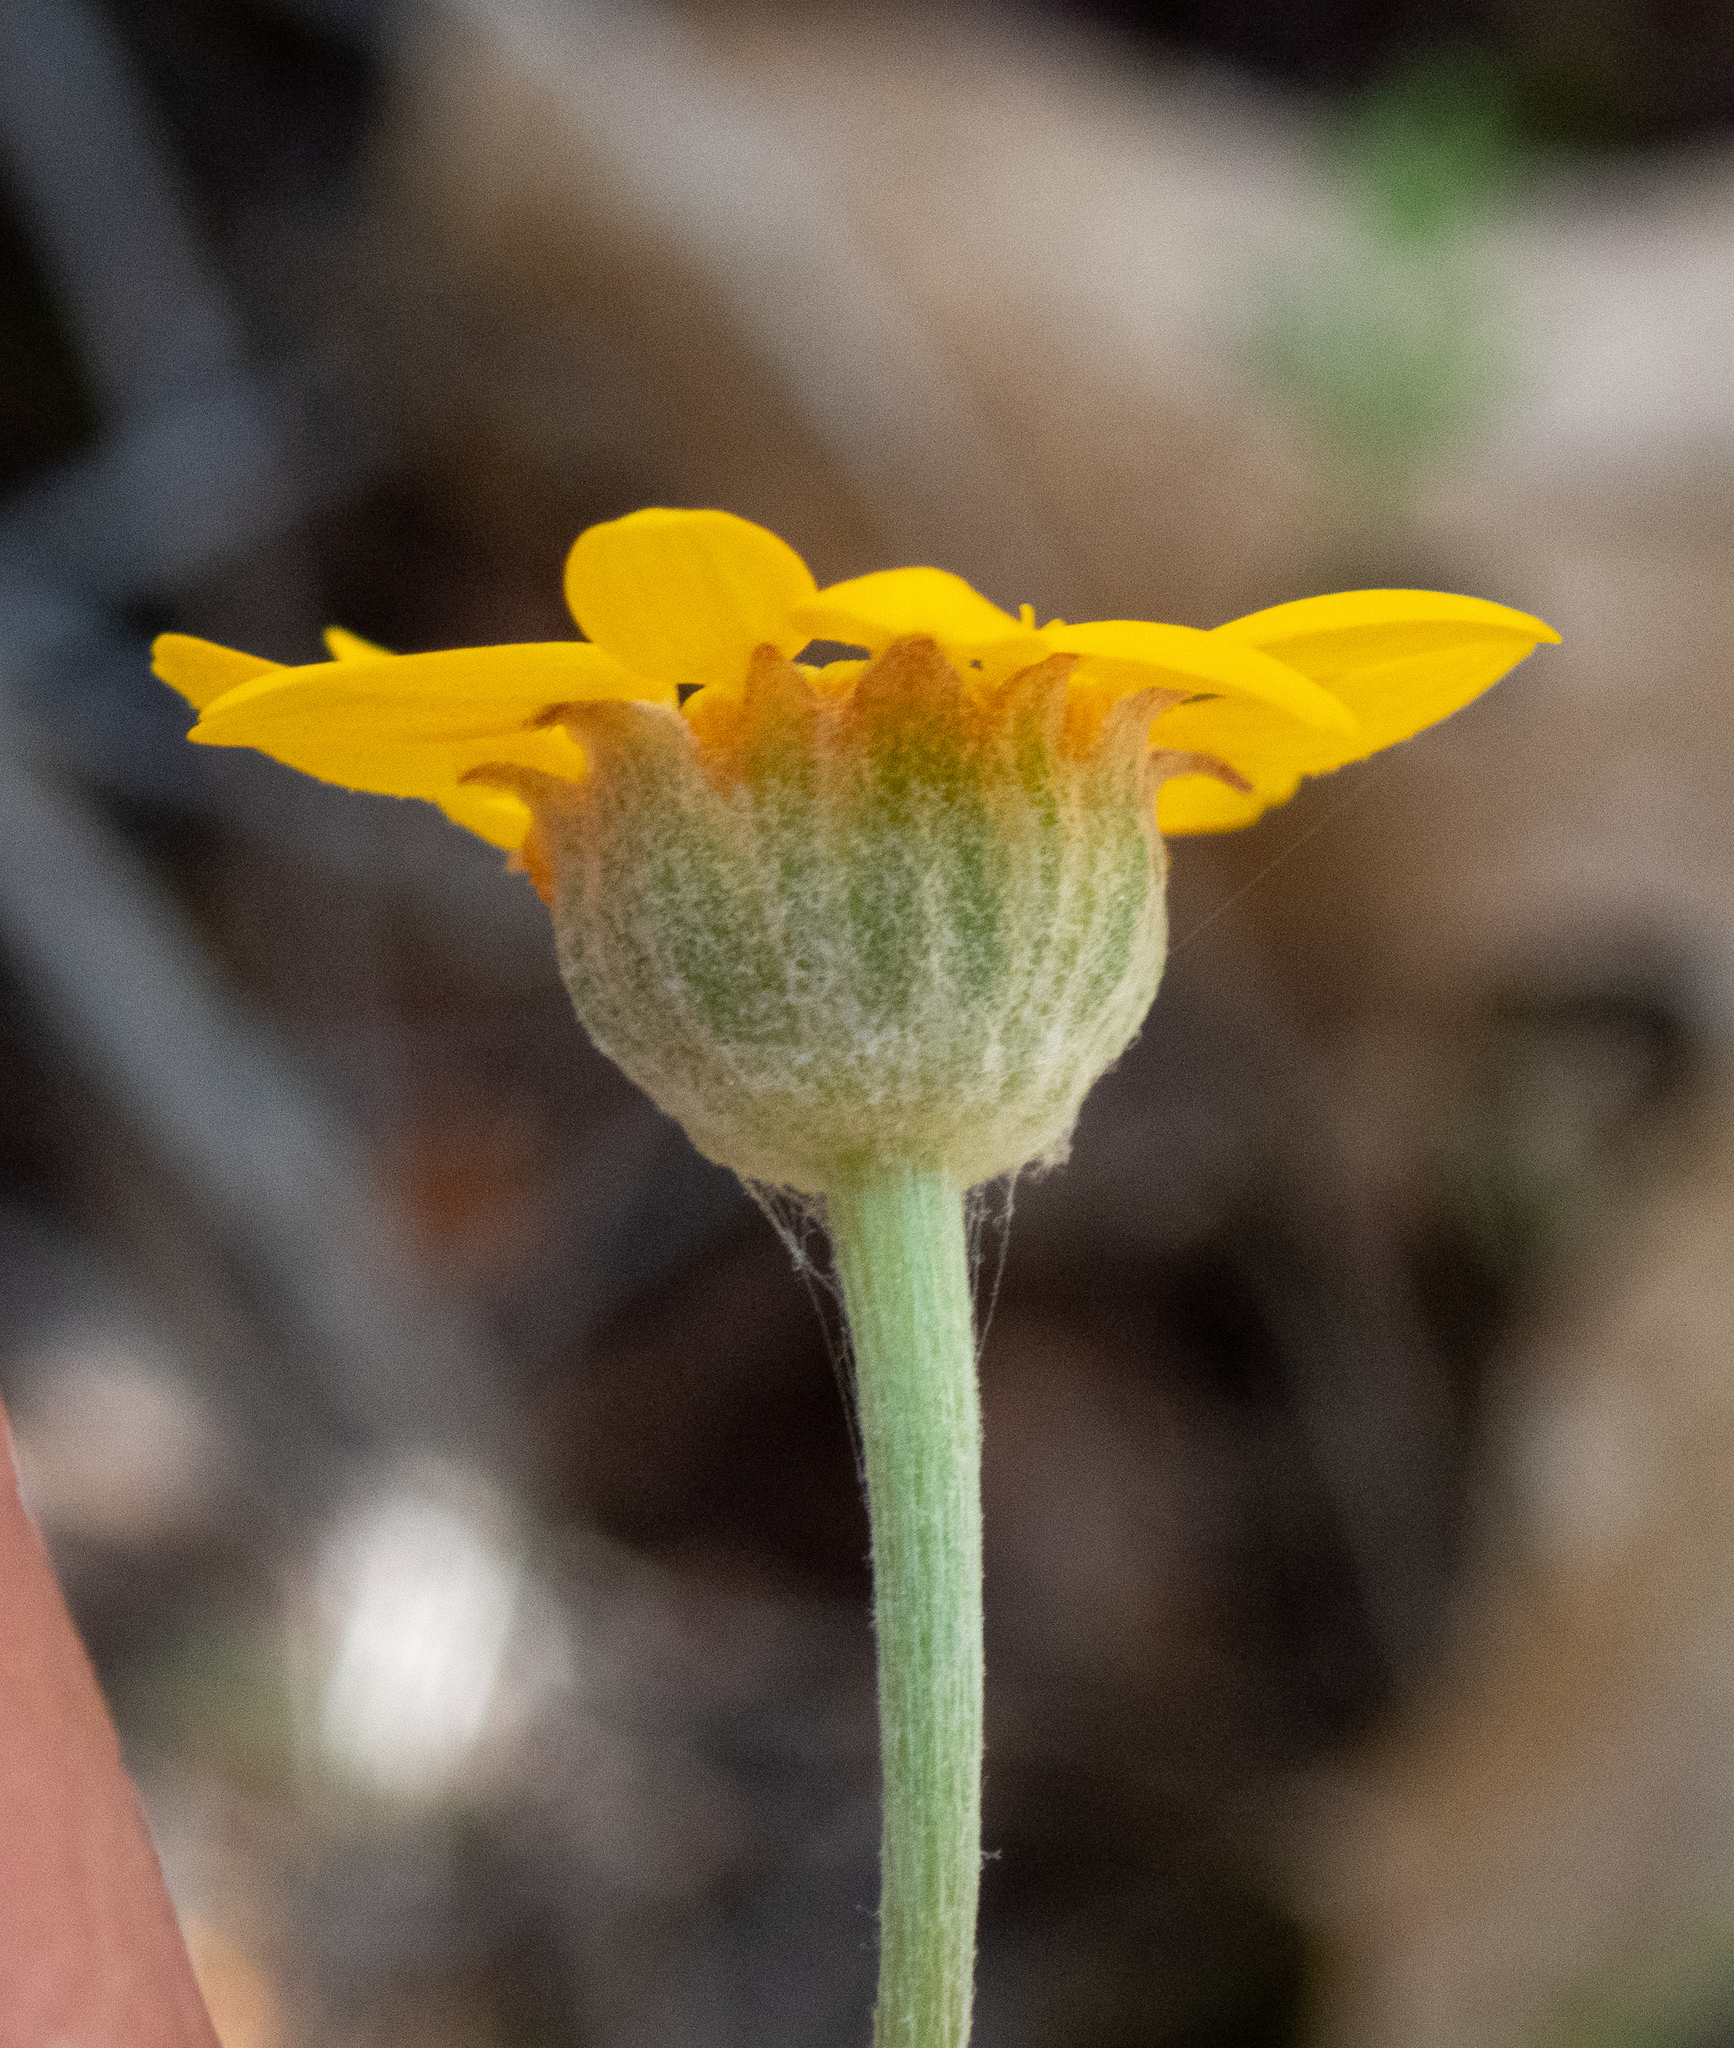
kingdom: Plantae
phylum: Tracheophyta
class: Magnoliopsida
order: Asterales
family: Asteraceae
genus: Eriophyllum
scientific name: Eriophyllum lanatum
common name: Common woolly-sunflower
